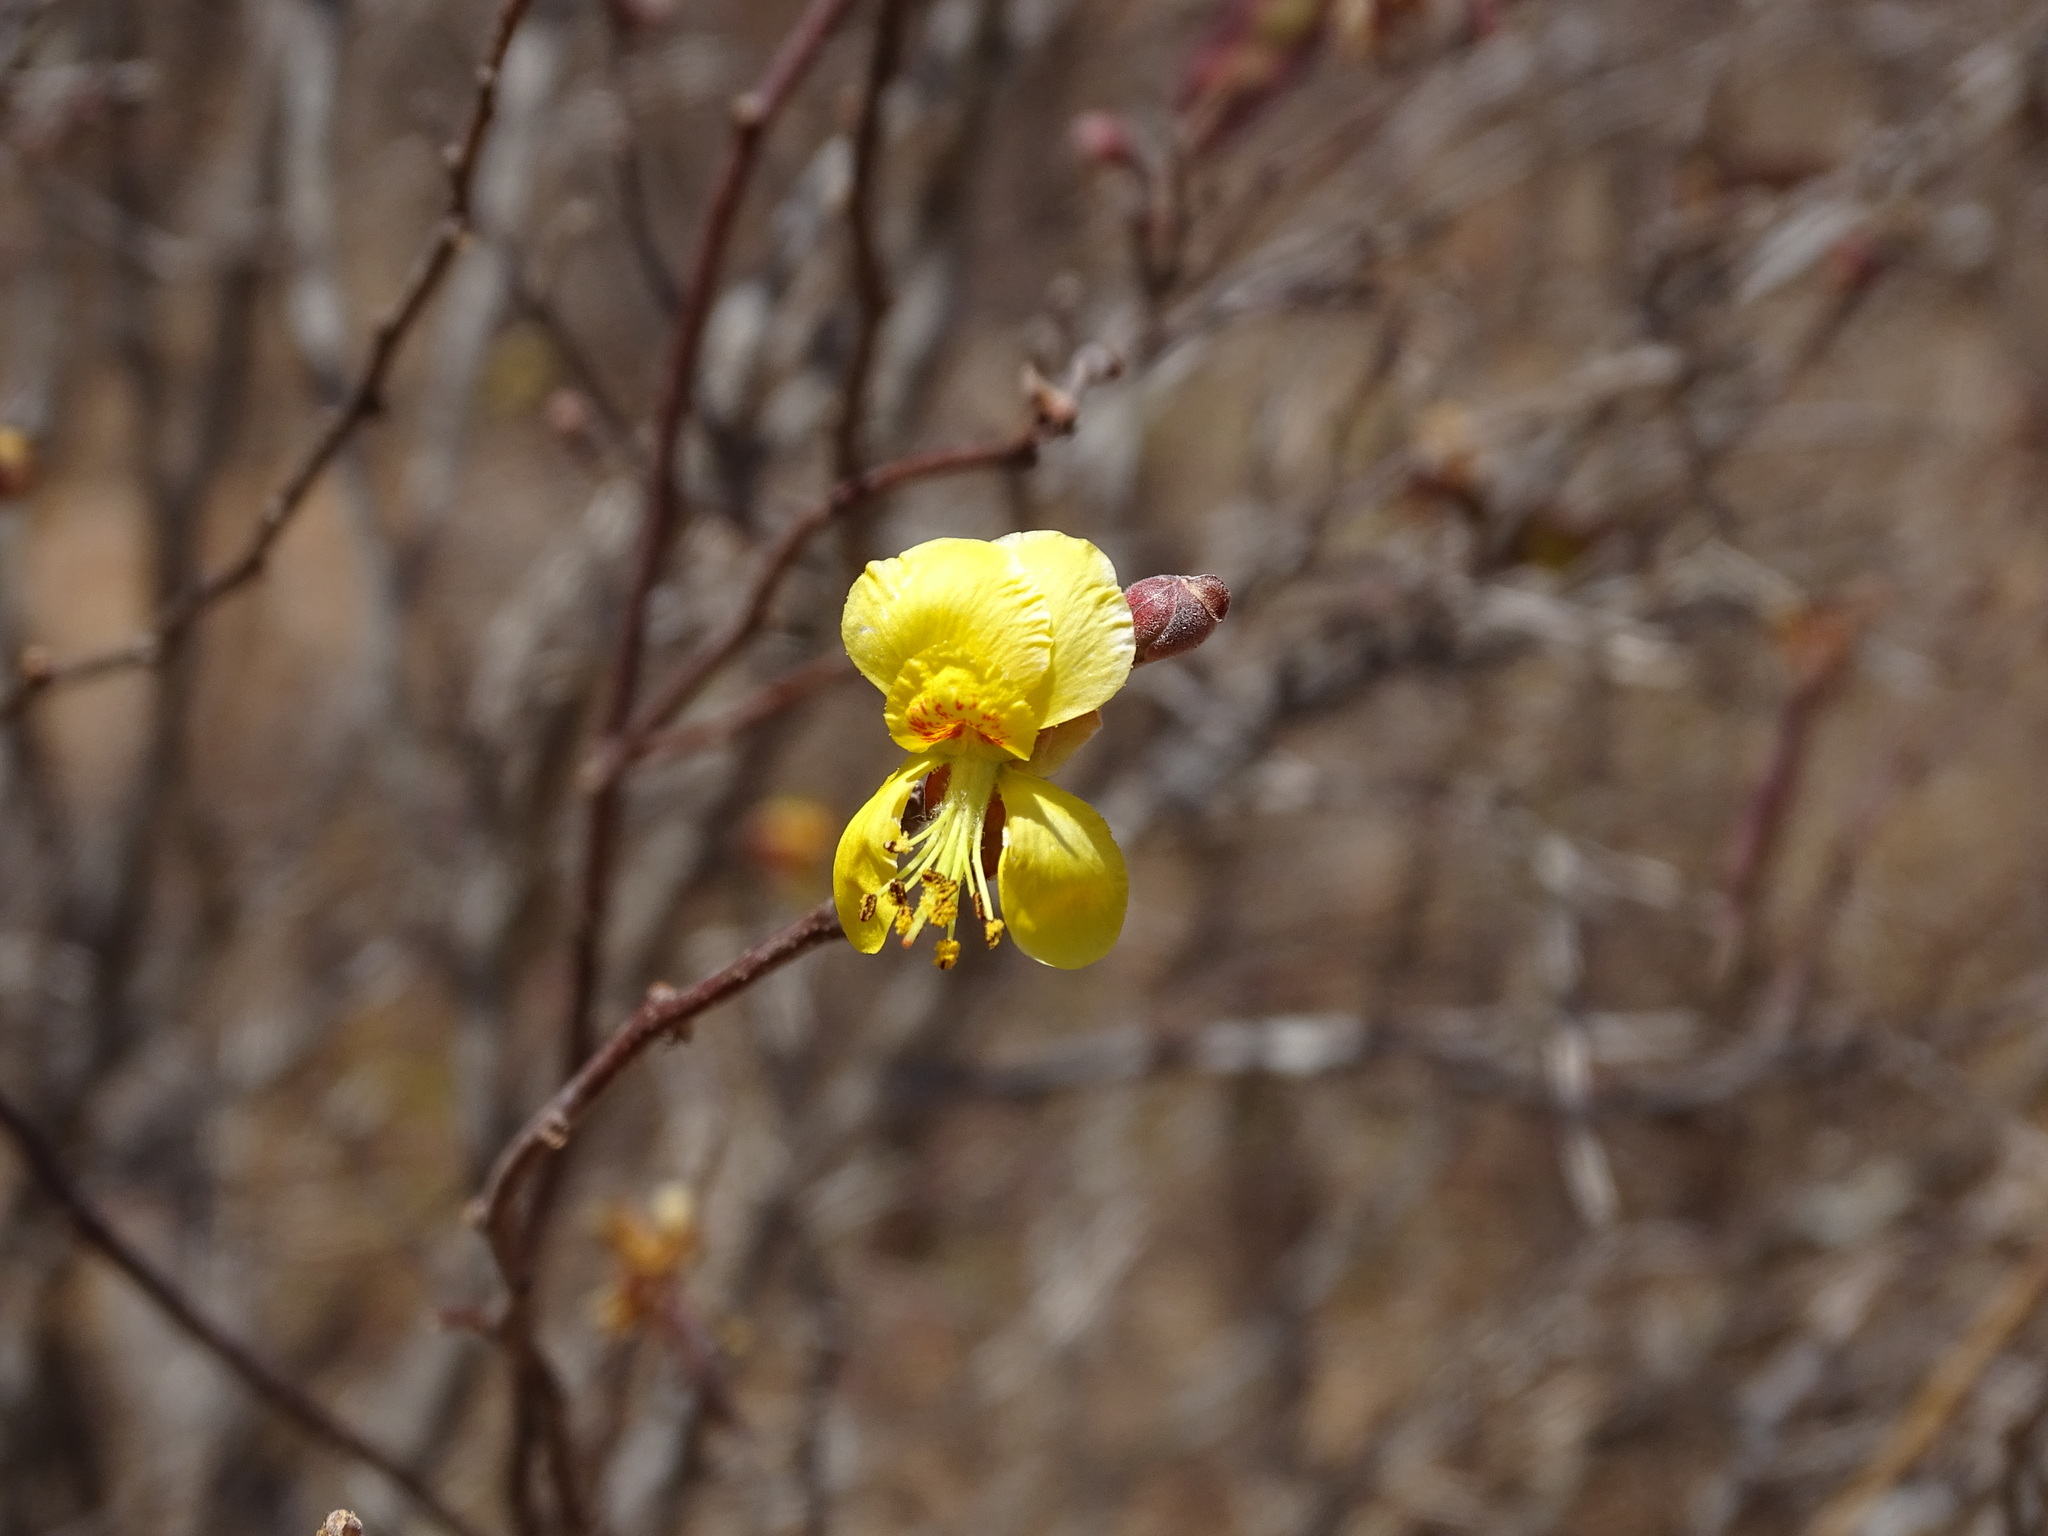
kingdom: Plantae
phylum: Tracheophyta
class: Magnoliopsida
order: Fabales
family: Fabaceae
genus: Erythrostemon
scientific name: Erythrostemon palmeri
